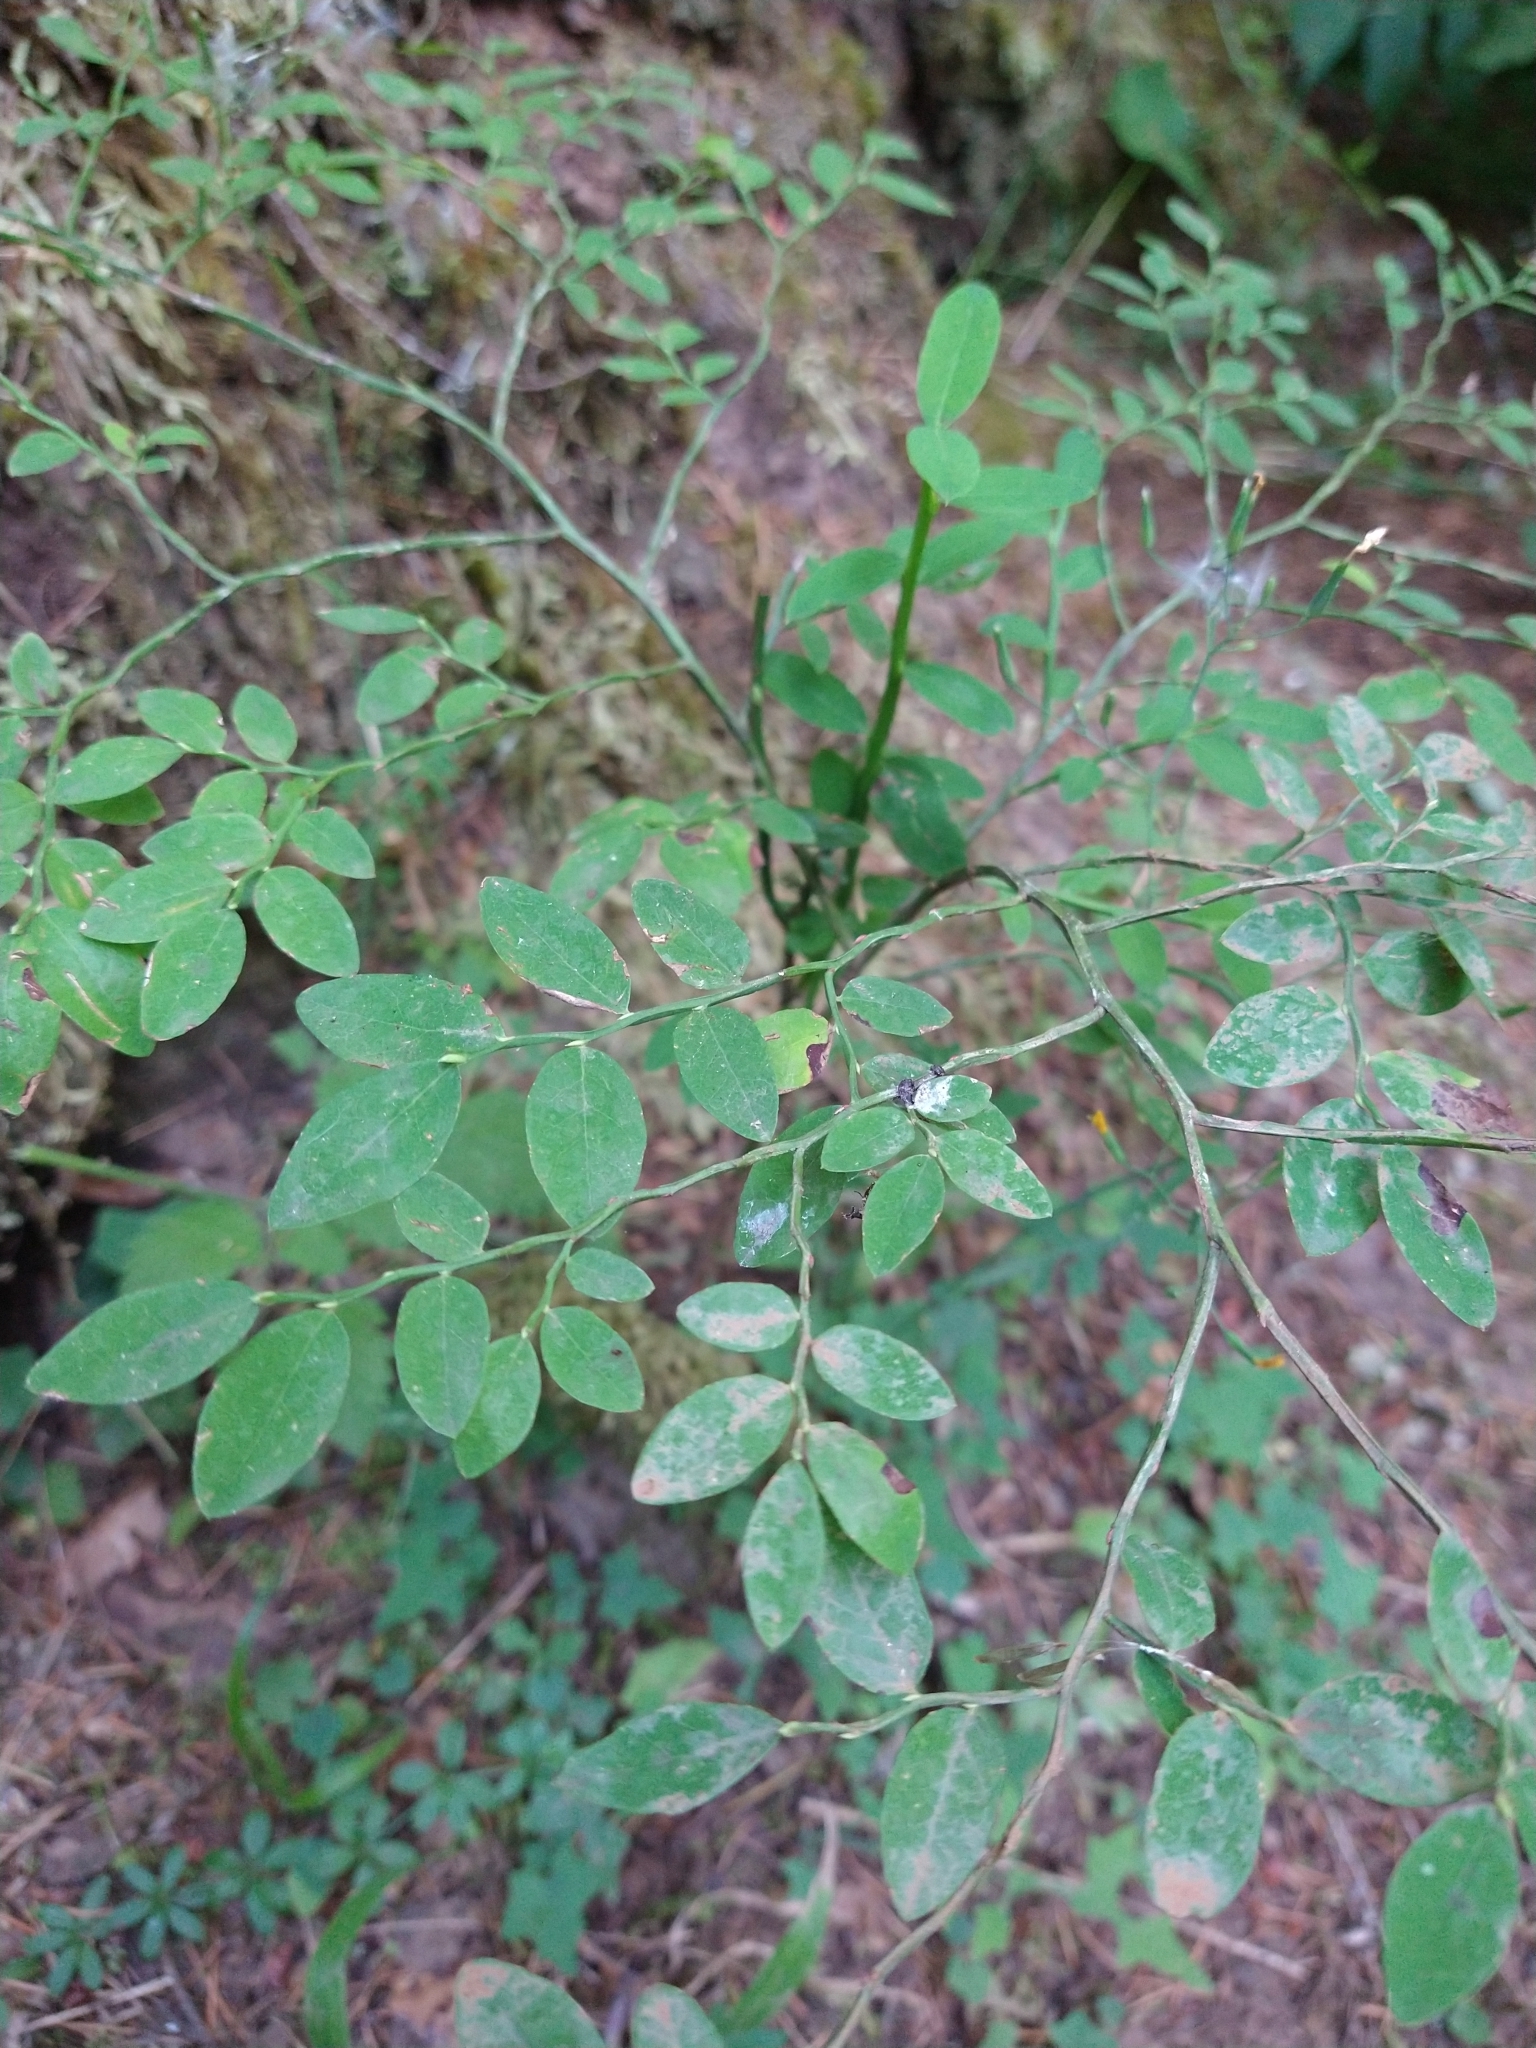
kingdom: Plantae
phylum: Tracheophyta
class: Magnoliopsida
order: Ericales
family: Ericaceae
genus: Vaccinium
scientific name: Vaccinium parvifolium
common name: Red-huckleberry
